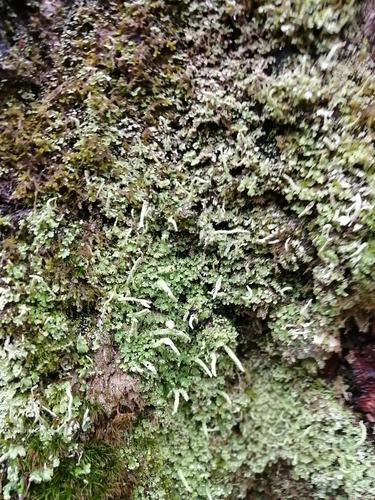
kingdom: Fungi
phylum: Ascomycota
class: Lecanoromycetes
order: Lecanorales
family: Cladoniaceae
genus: Cladonia
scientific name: Cladonia coniocraea
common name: Common powderhorn
